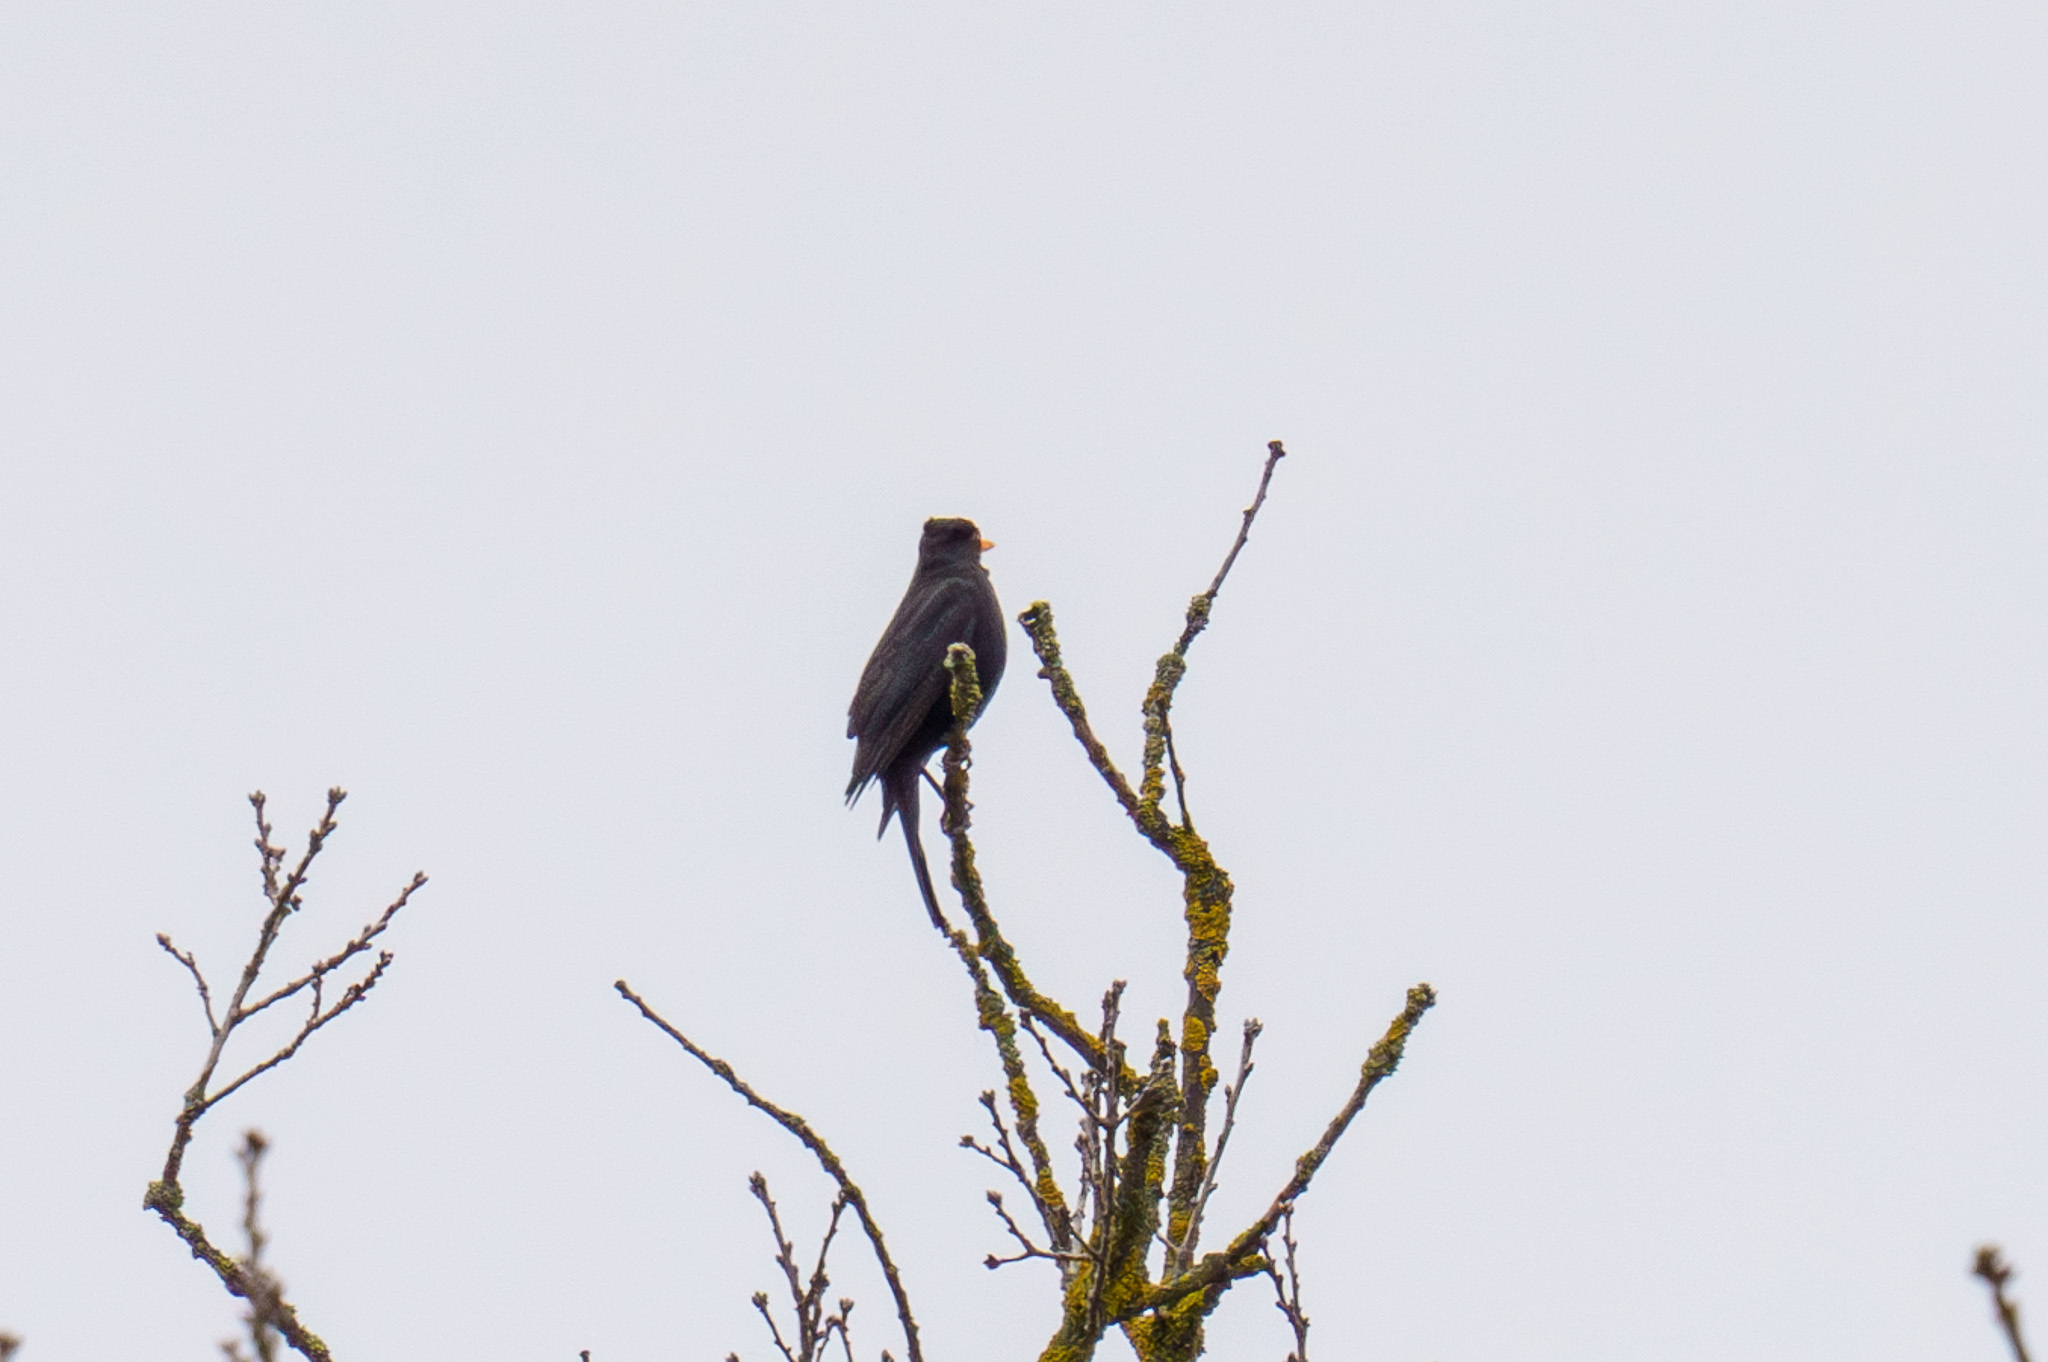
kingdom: Animalia
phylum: Chordata
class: Aves
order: Passeriformes
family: Turdidae
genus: Turdus
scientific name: Turdus merula
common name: Common blackbird
